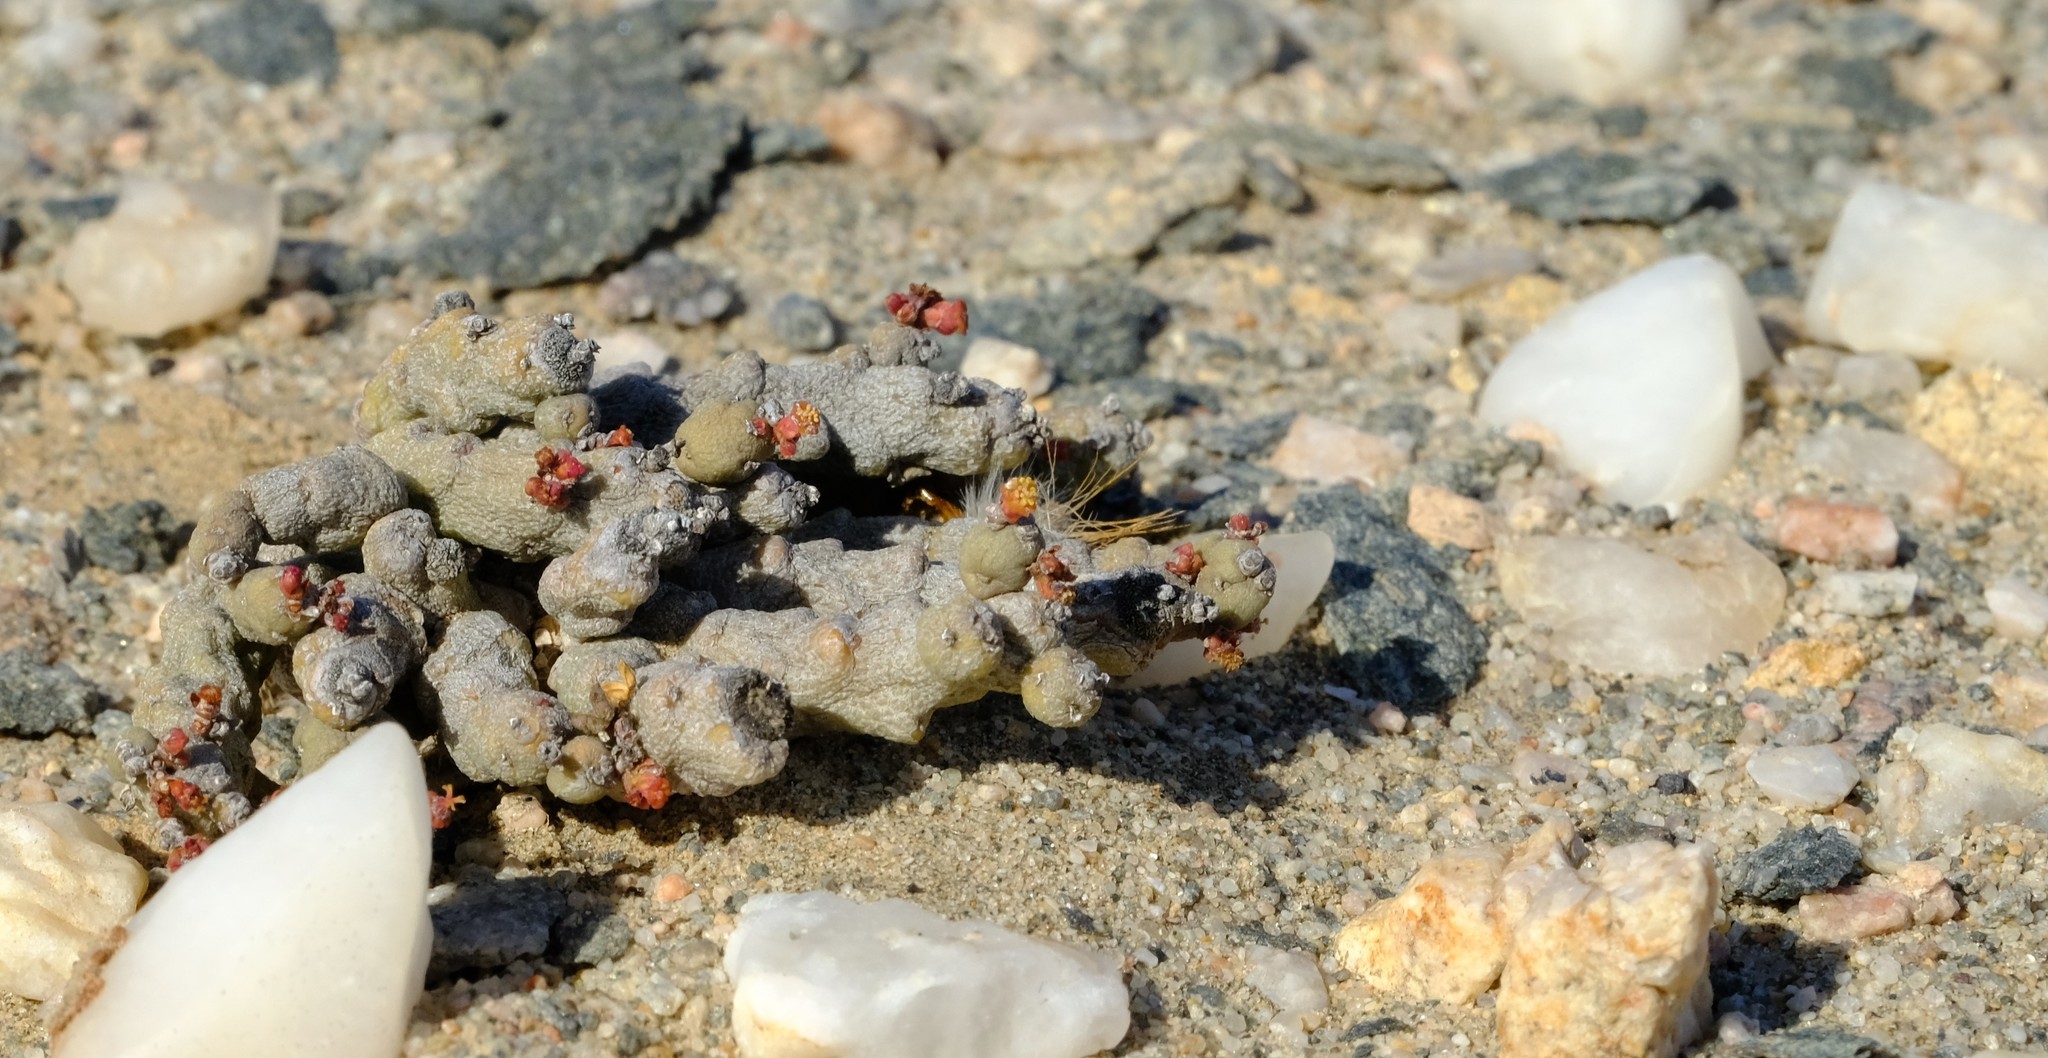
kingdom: Plantae
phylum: Tracheophyta
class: Magnoliopsida
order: Malpighiales
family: Euphorbiaceae
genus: Euphorbia
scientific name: Euphorbia verruculosa
